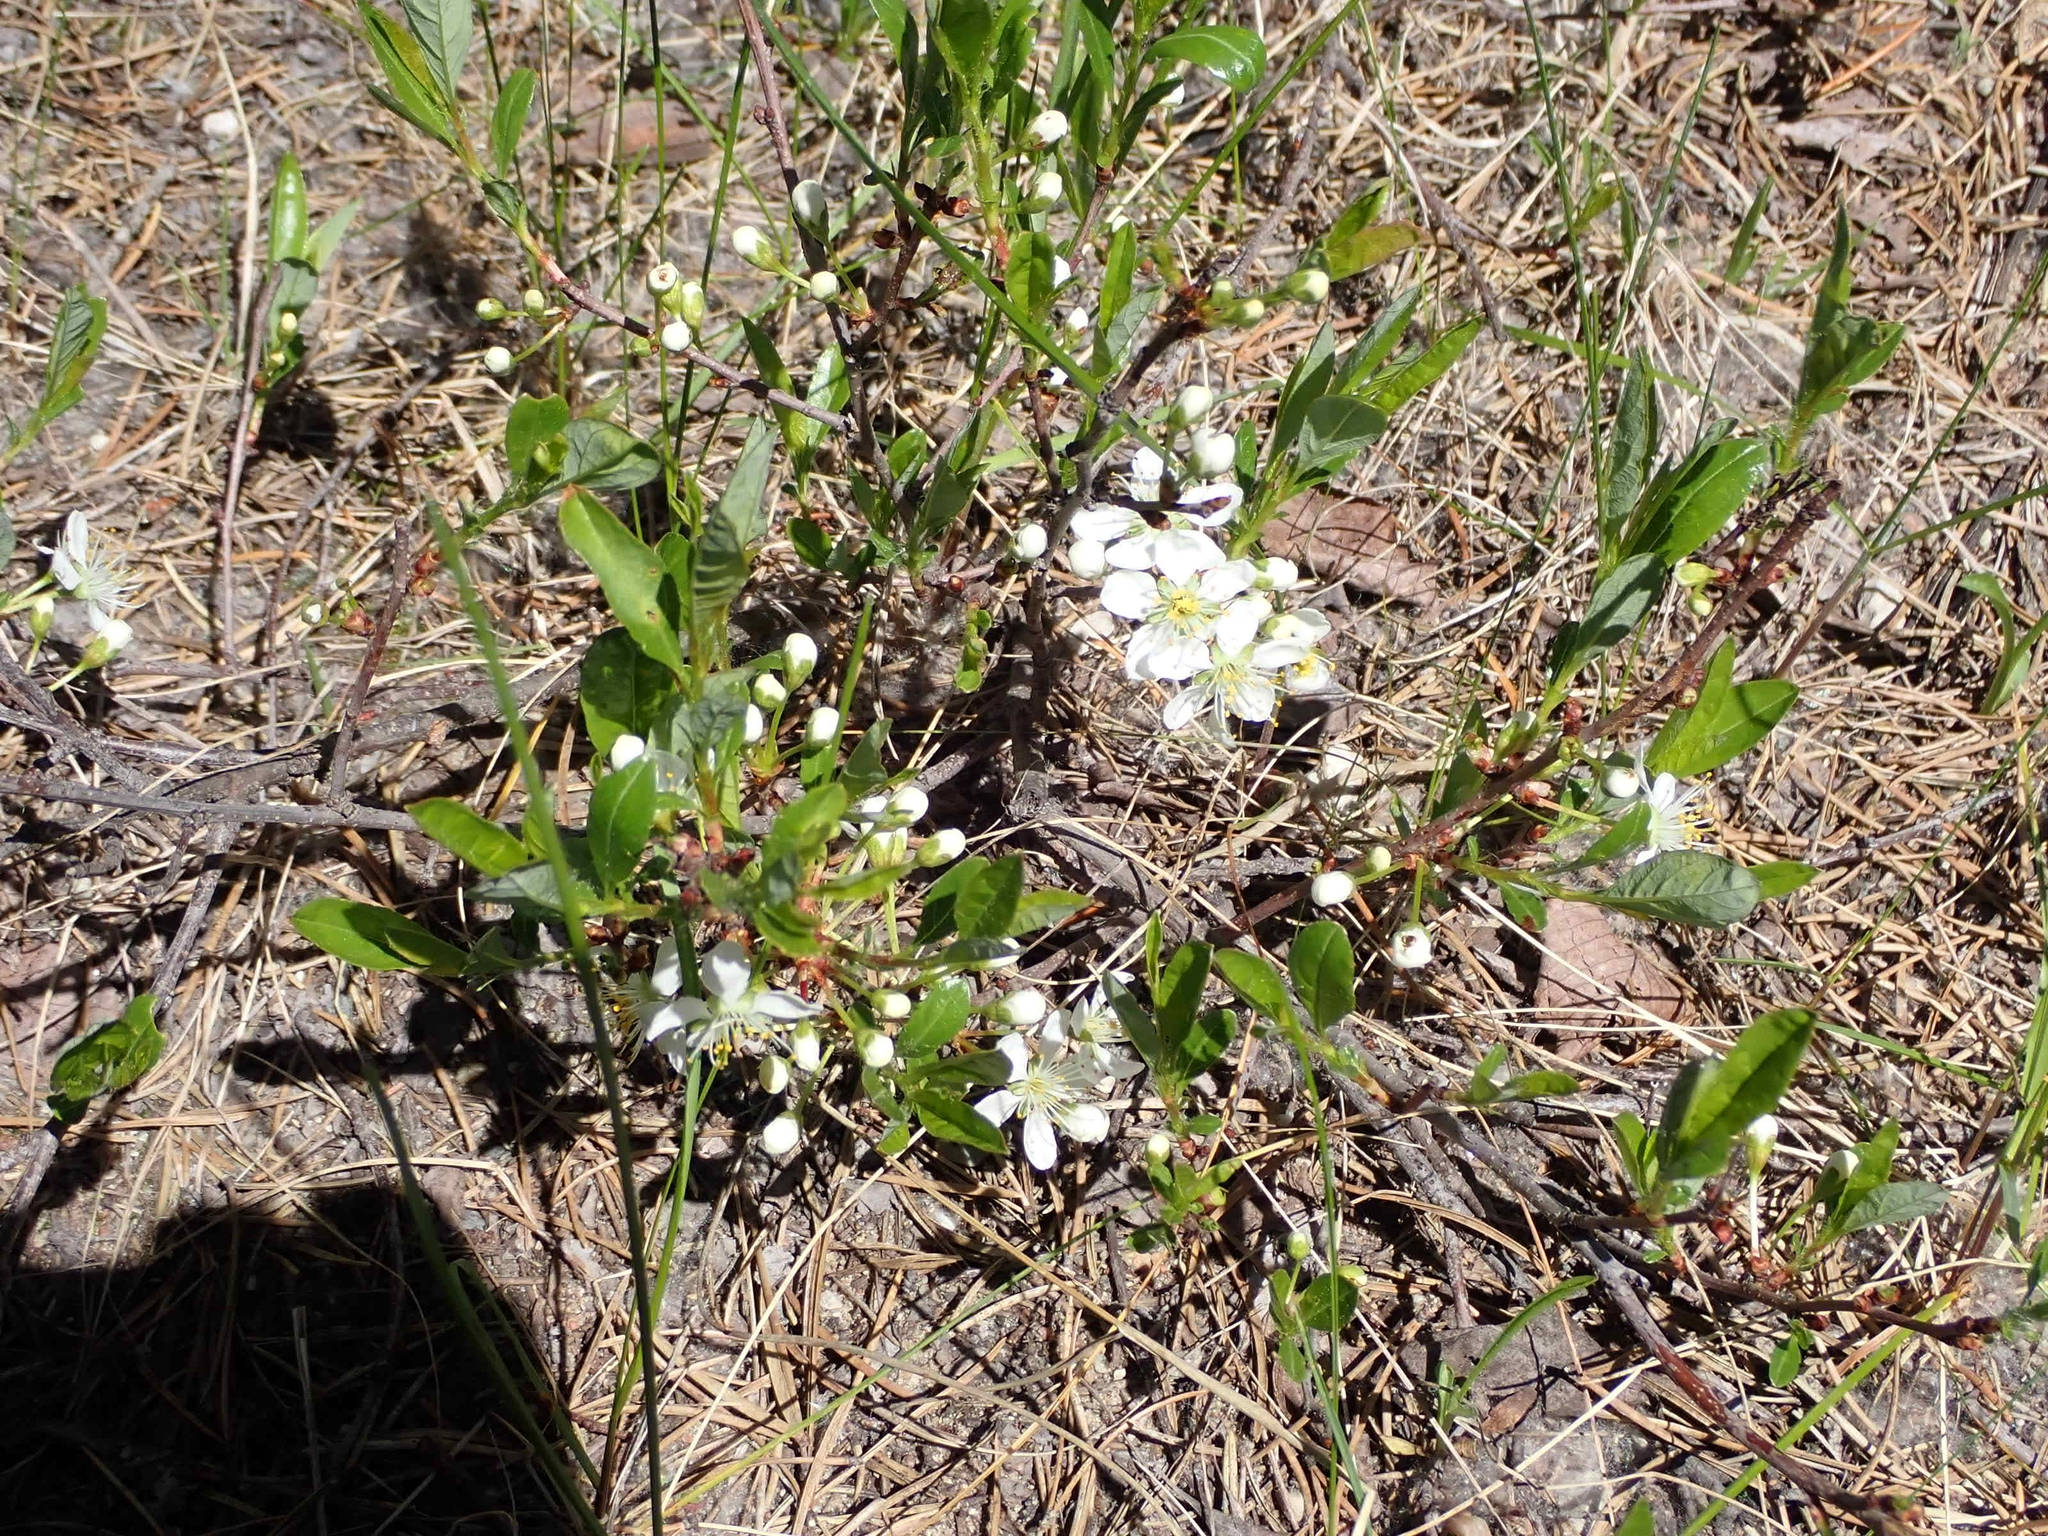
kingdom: Plantae
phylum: Tracheophyta
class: Magnoliopsida
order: Rosales
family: Rosaceae
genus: Prunus
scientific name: Prunus pumila
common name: Dwarf cherry
